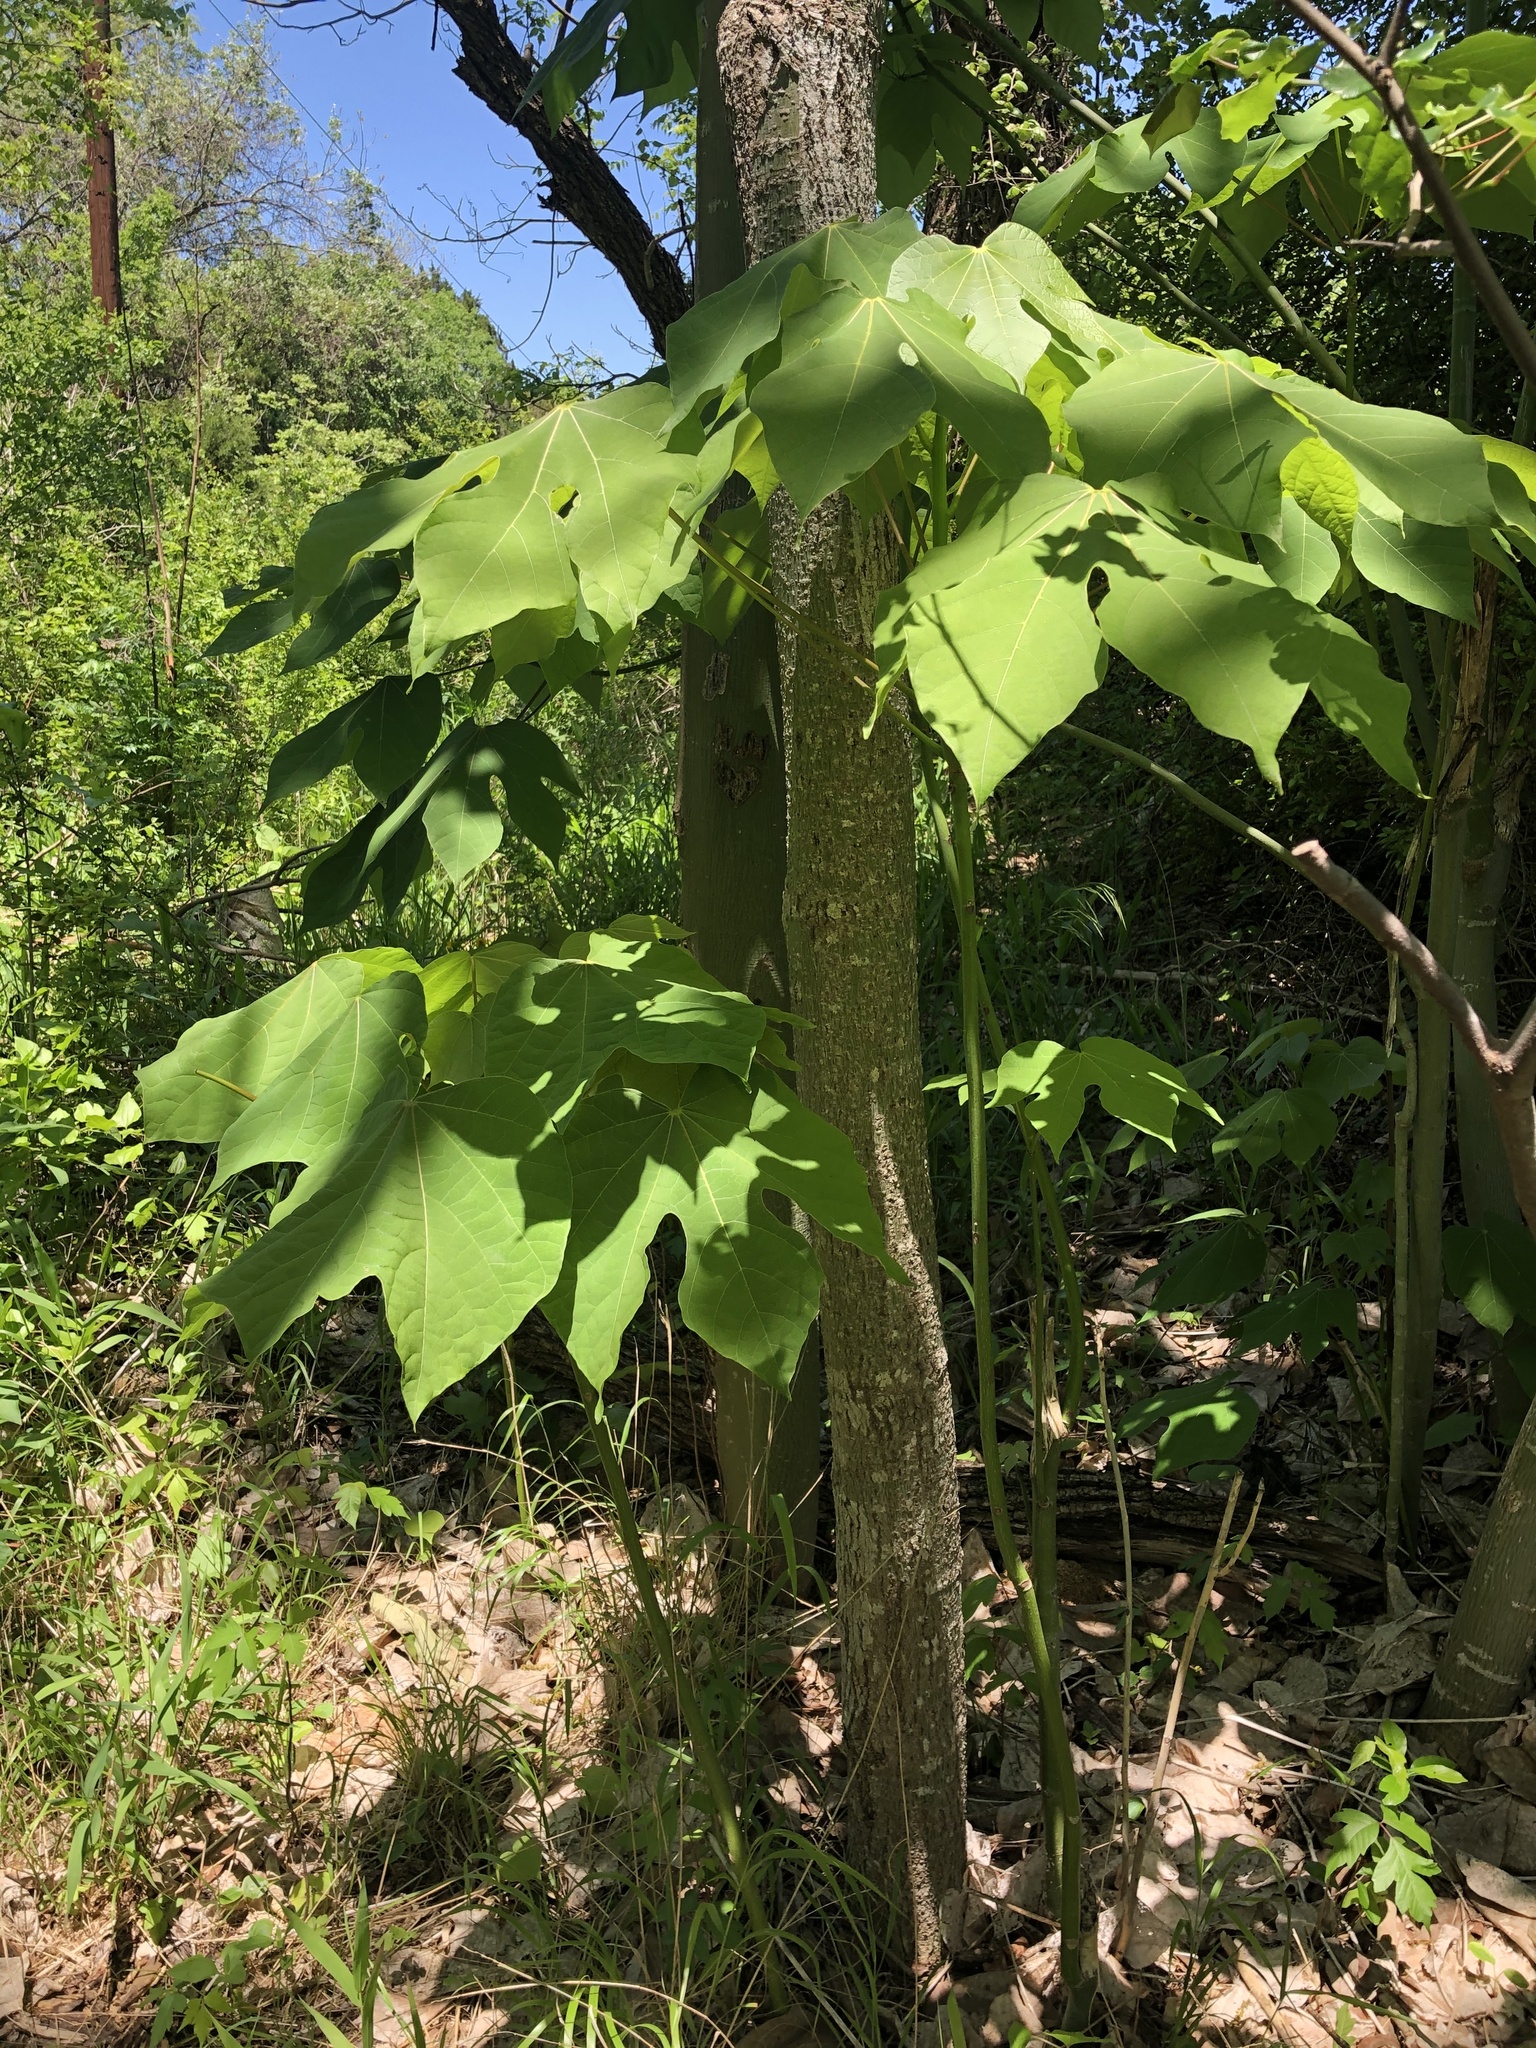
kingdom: Plantae
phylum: Tracheophyta
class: Magnoliopsida
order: Malvales
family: Malvaceae
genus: Firmiana
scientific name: Firmiana simplex
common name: Chinese parasoltree
